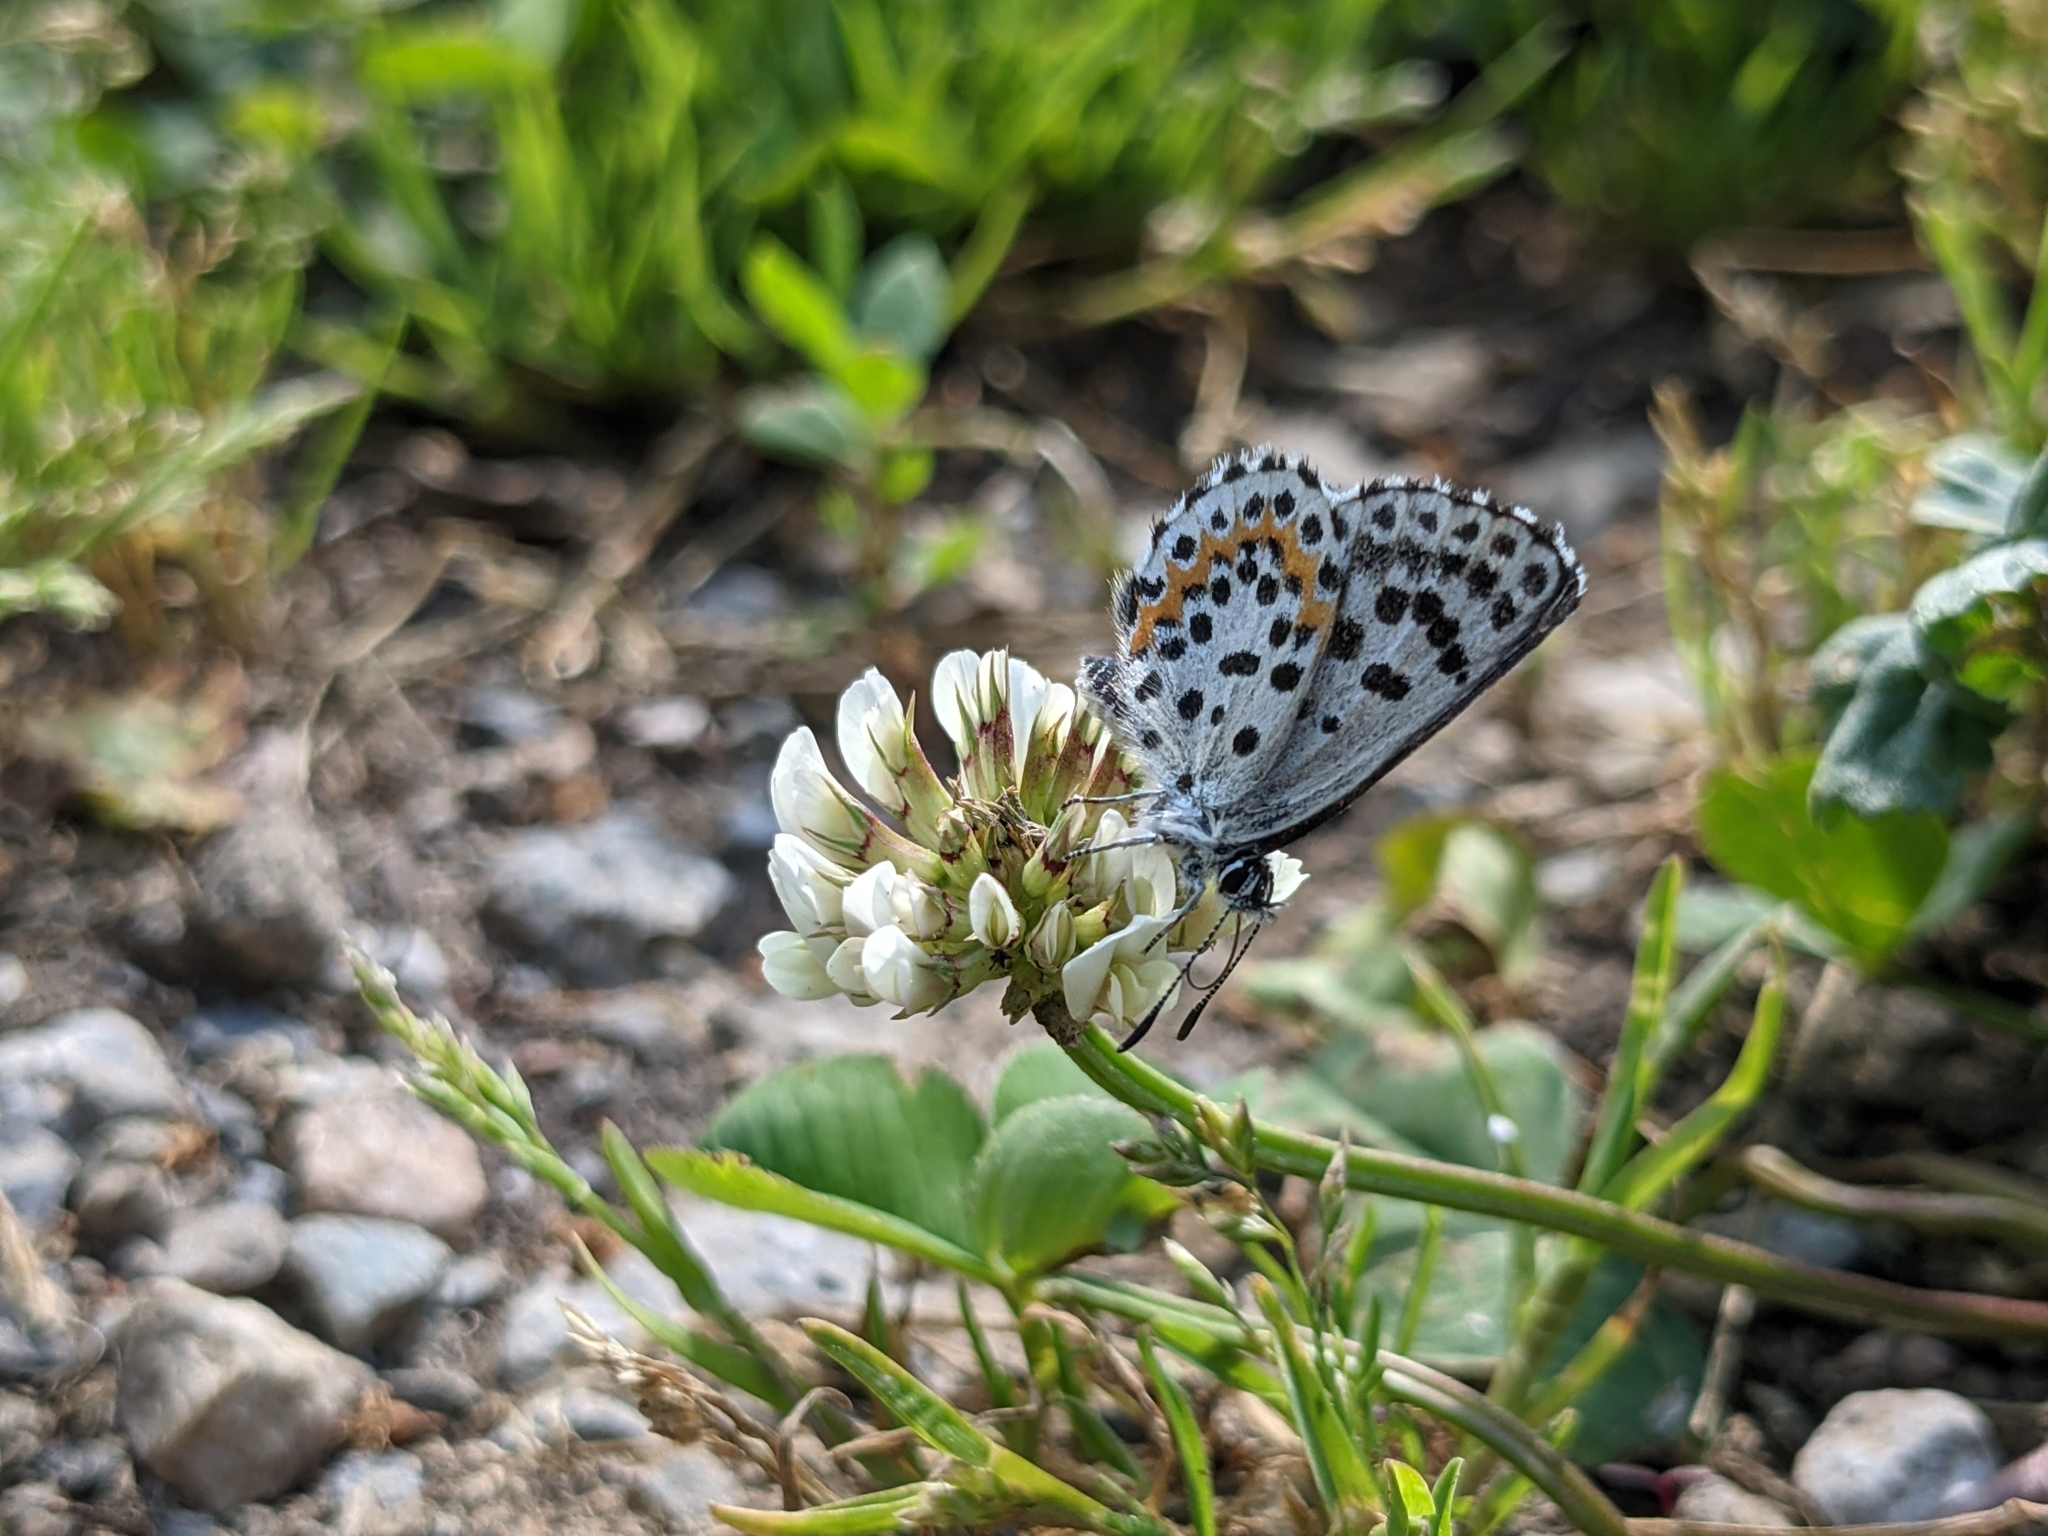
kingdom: Animalia
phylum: Arthropoda
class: Insecta
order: Lepidoptera
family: Lycaenidae
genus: Scolitantides
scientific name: Scolitantides orion
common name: Chequered blue
